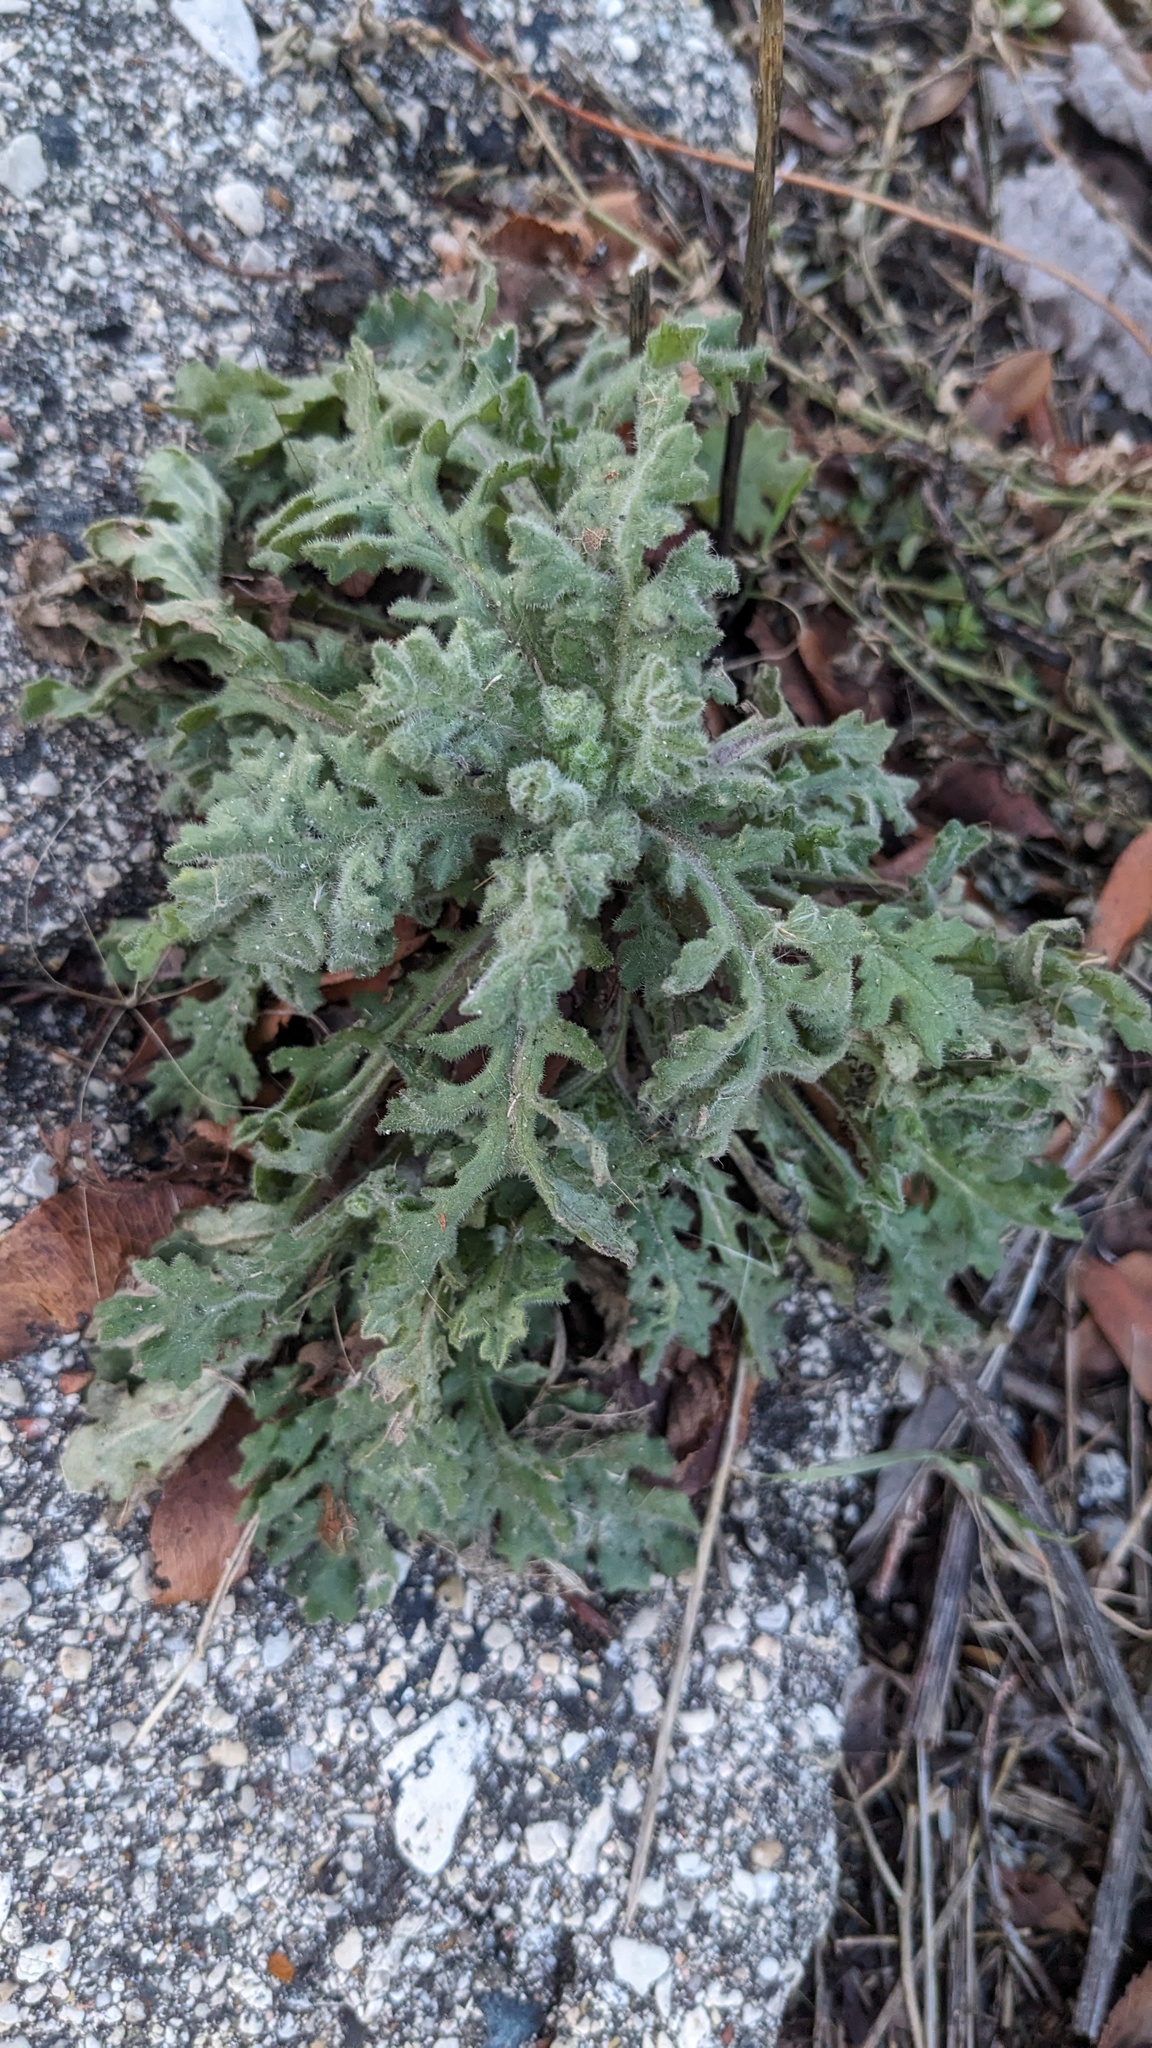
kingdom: Plantae
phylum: Tracheophyta
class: Magnoliopsida
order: Asterales
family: Asteraceae
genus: Senecio
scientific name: Senecio viscosus
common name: Sticky groundsel
